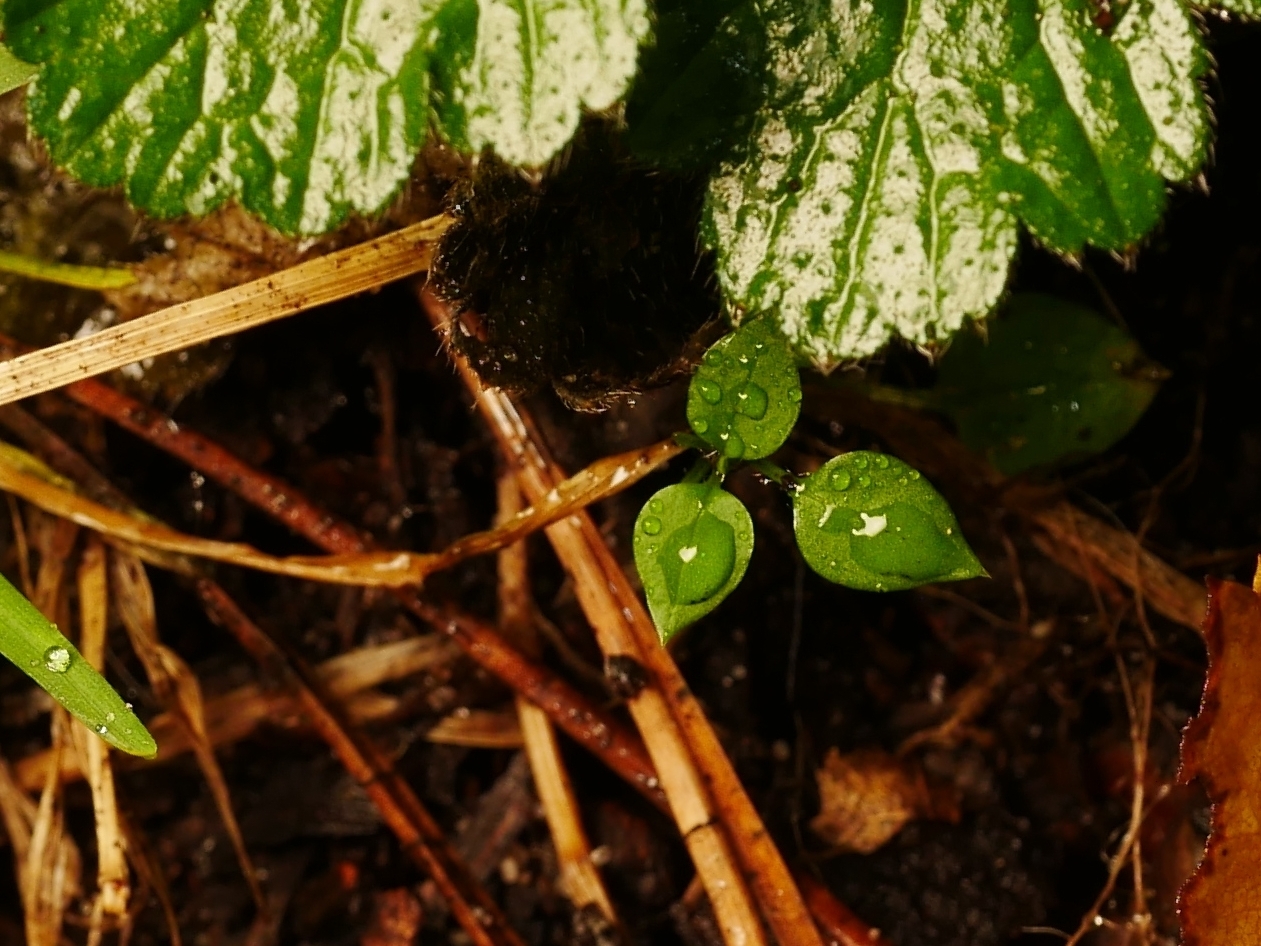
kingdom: Plantae
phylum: Tracheophyta
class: Magnoliopsida
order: Caryophyllales
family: Caryophyllaceae
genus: Stellaria
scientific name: Stellaria media
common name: Common chickweed
